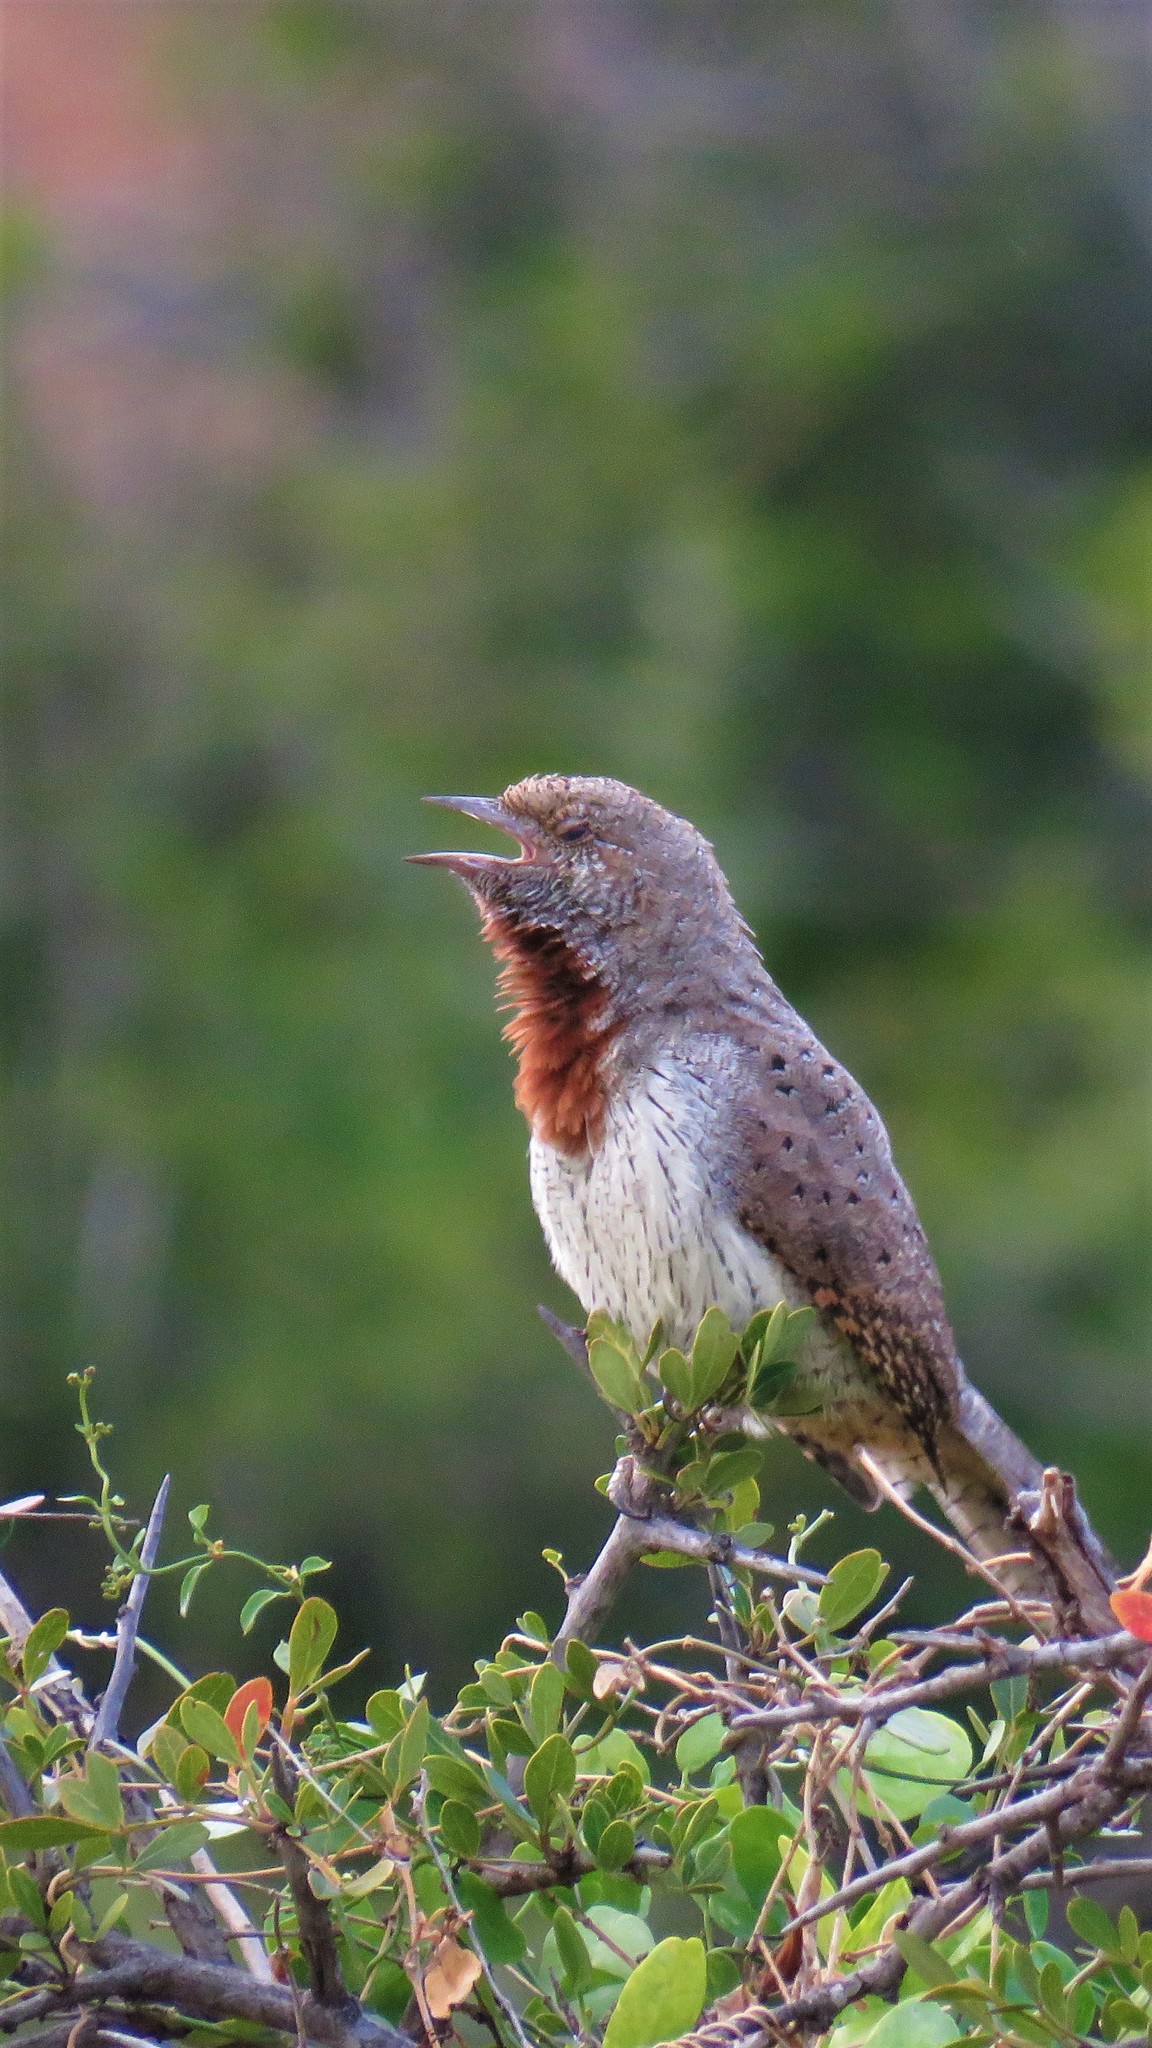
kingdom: Animalia
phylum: Chordata
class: Aves
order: Piciformes
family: Picidae
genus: Jynx
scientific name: Jynx ruficollis
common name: Red-throated wryneck
